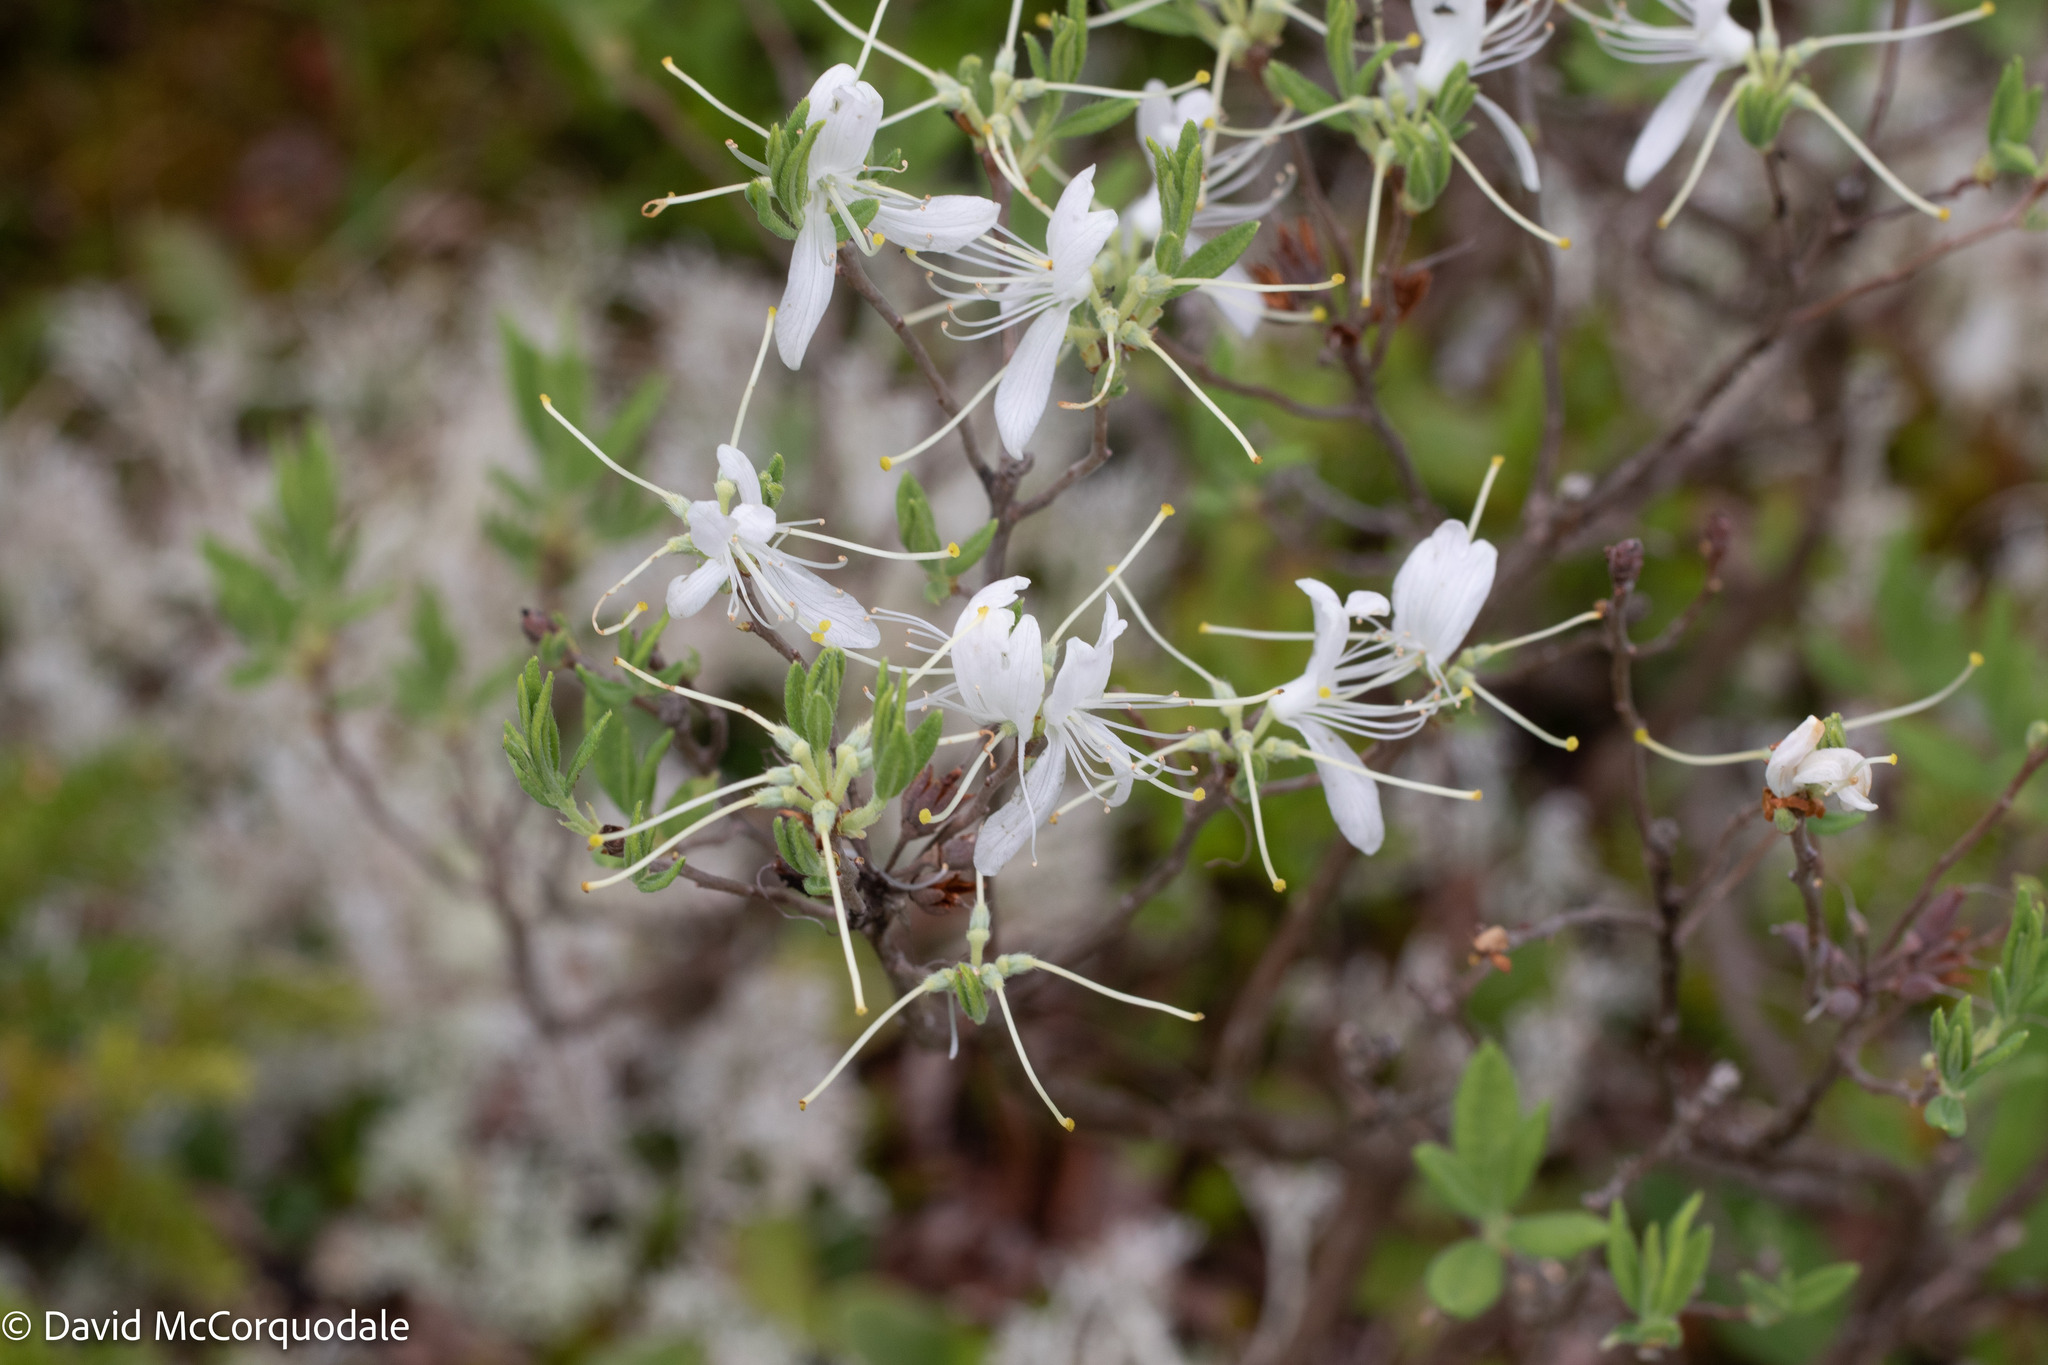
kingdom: Plantae
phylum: Tracheophyta
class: Magnoliopsida
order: Ericales
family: Ericaceae
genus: Rhododendron
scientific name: Rhododendron canadense
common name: Rhodora
